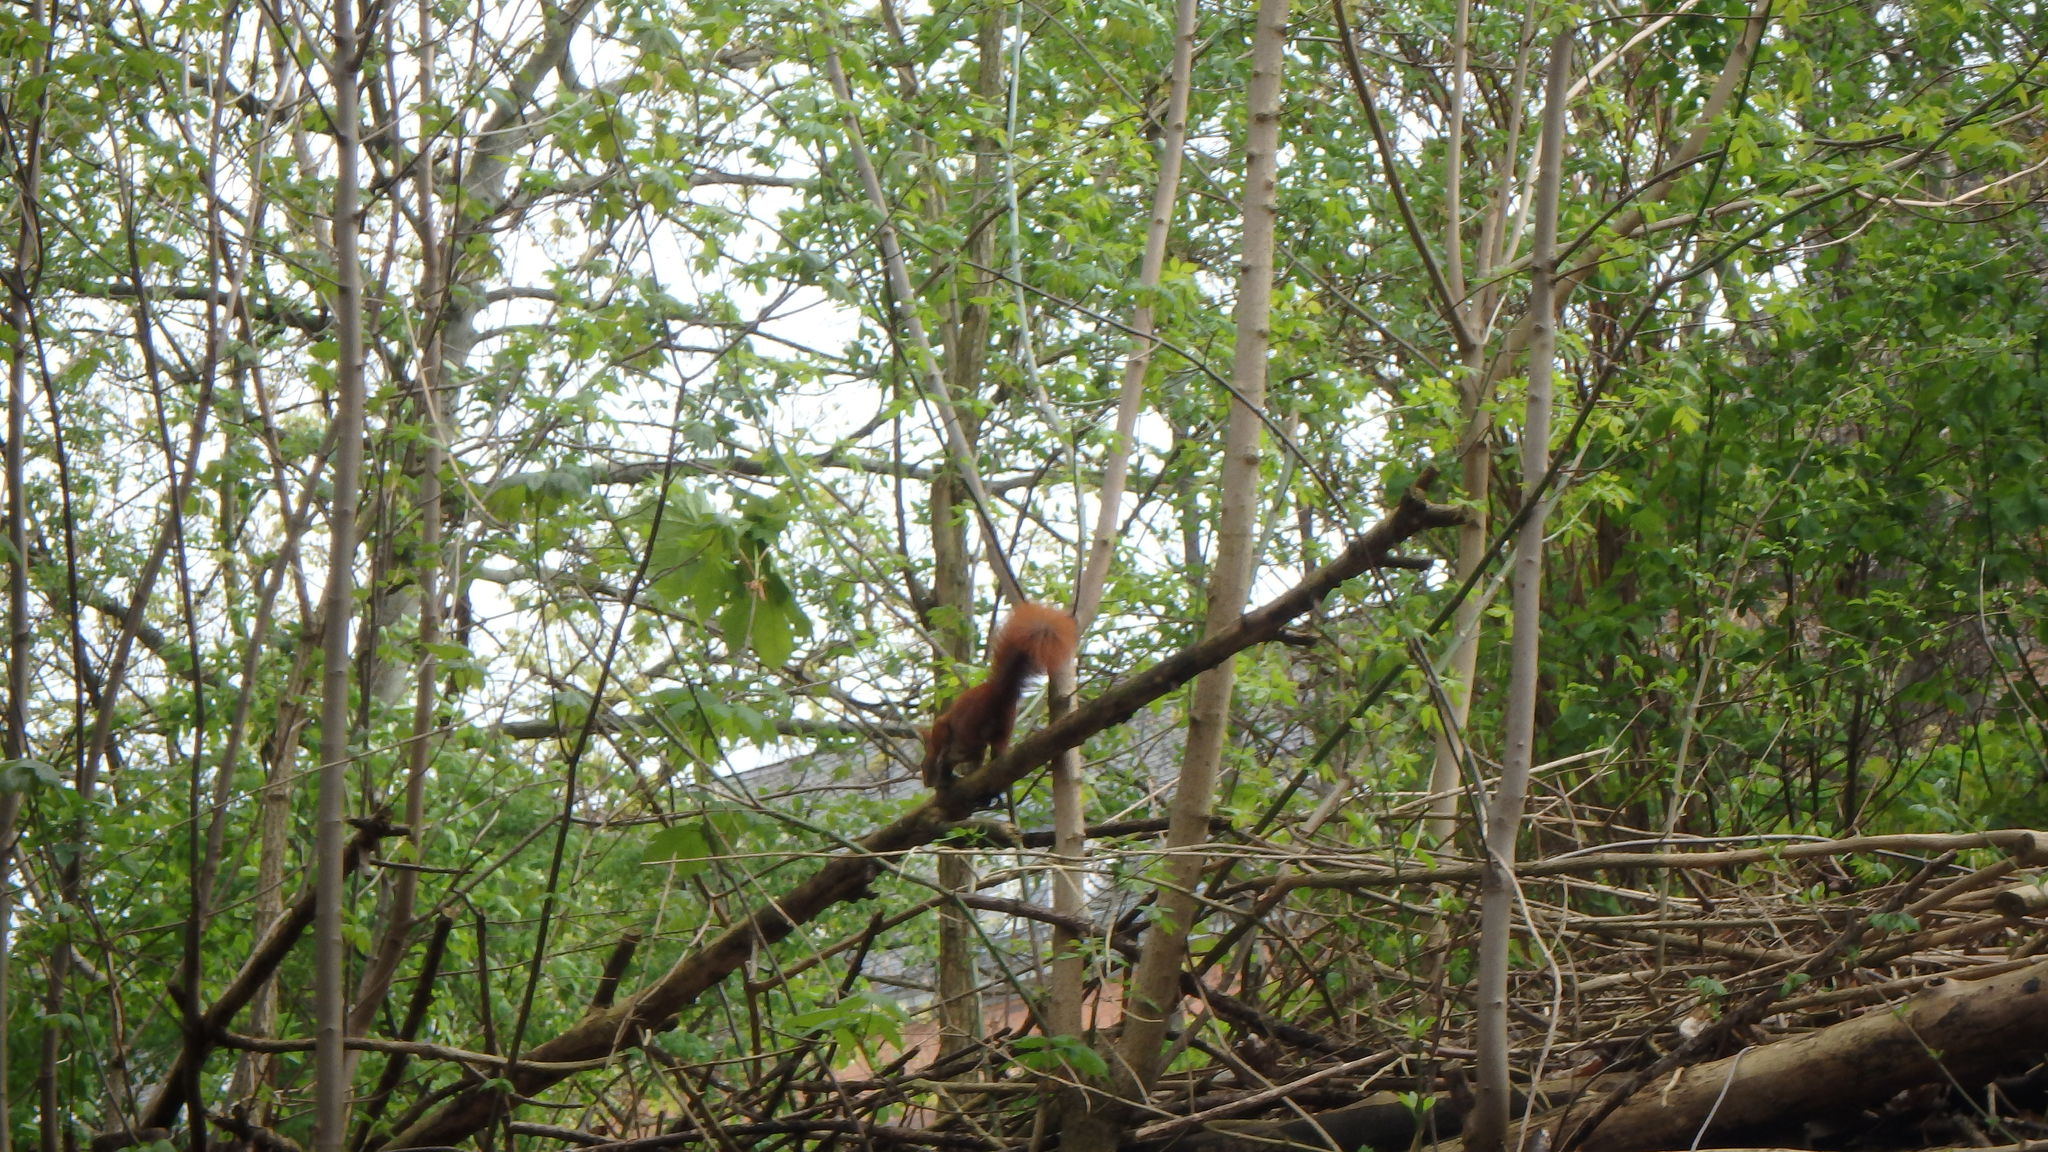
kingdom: Animalia
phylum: Chordata
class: Mammalia
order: Rodentia
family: Sciuridae
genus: Sciurus
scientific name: Sciurus vulgaris
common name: Eurasian red squirrel
